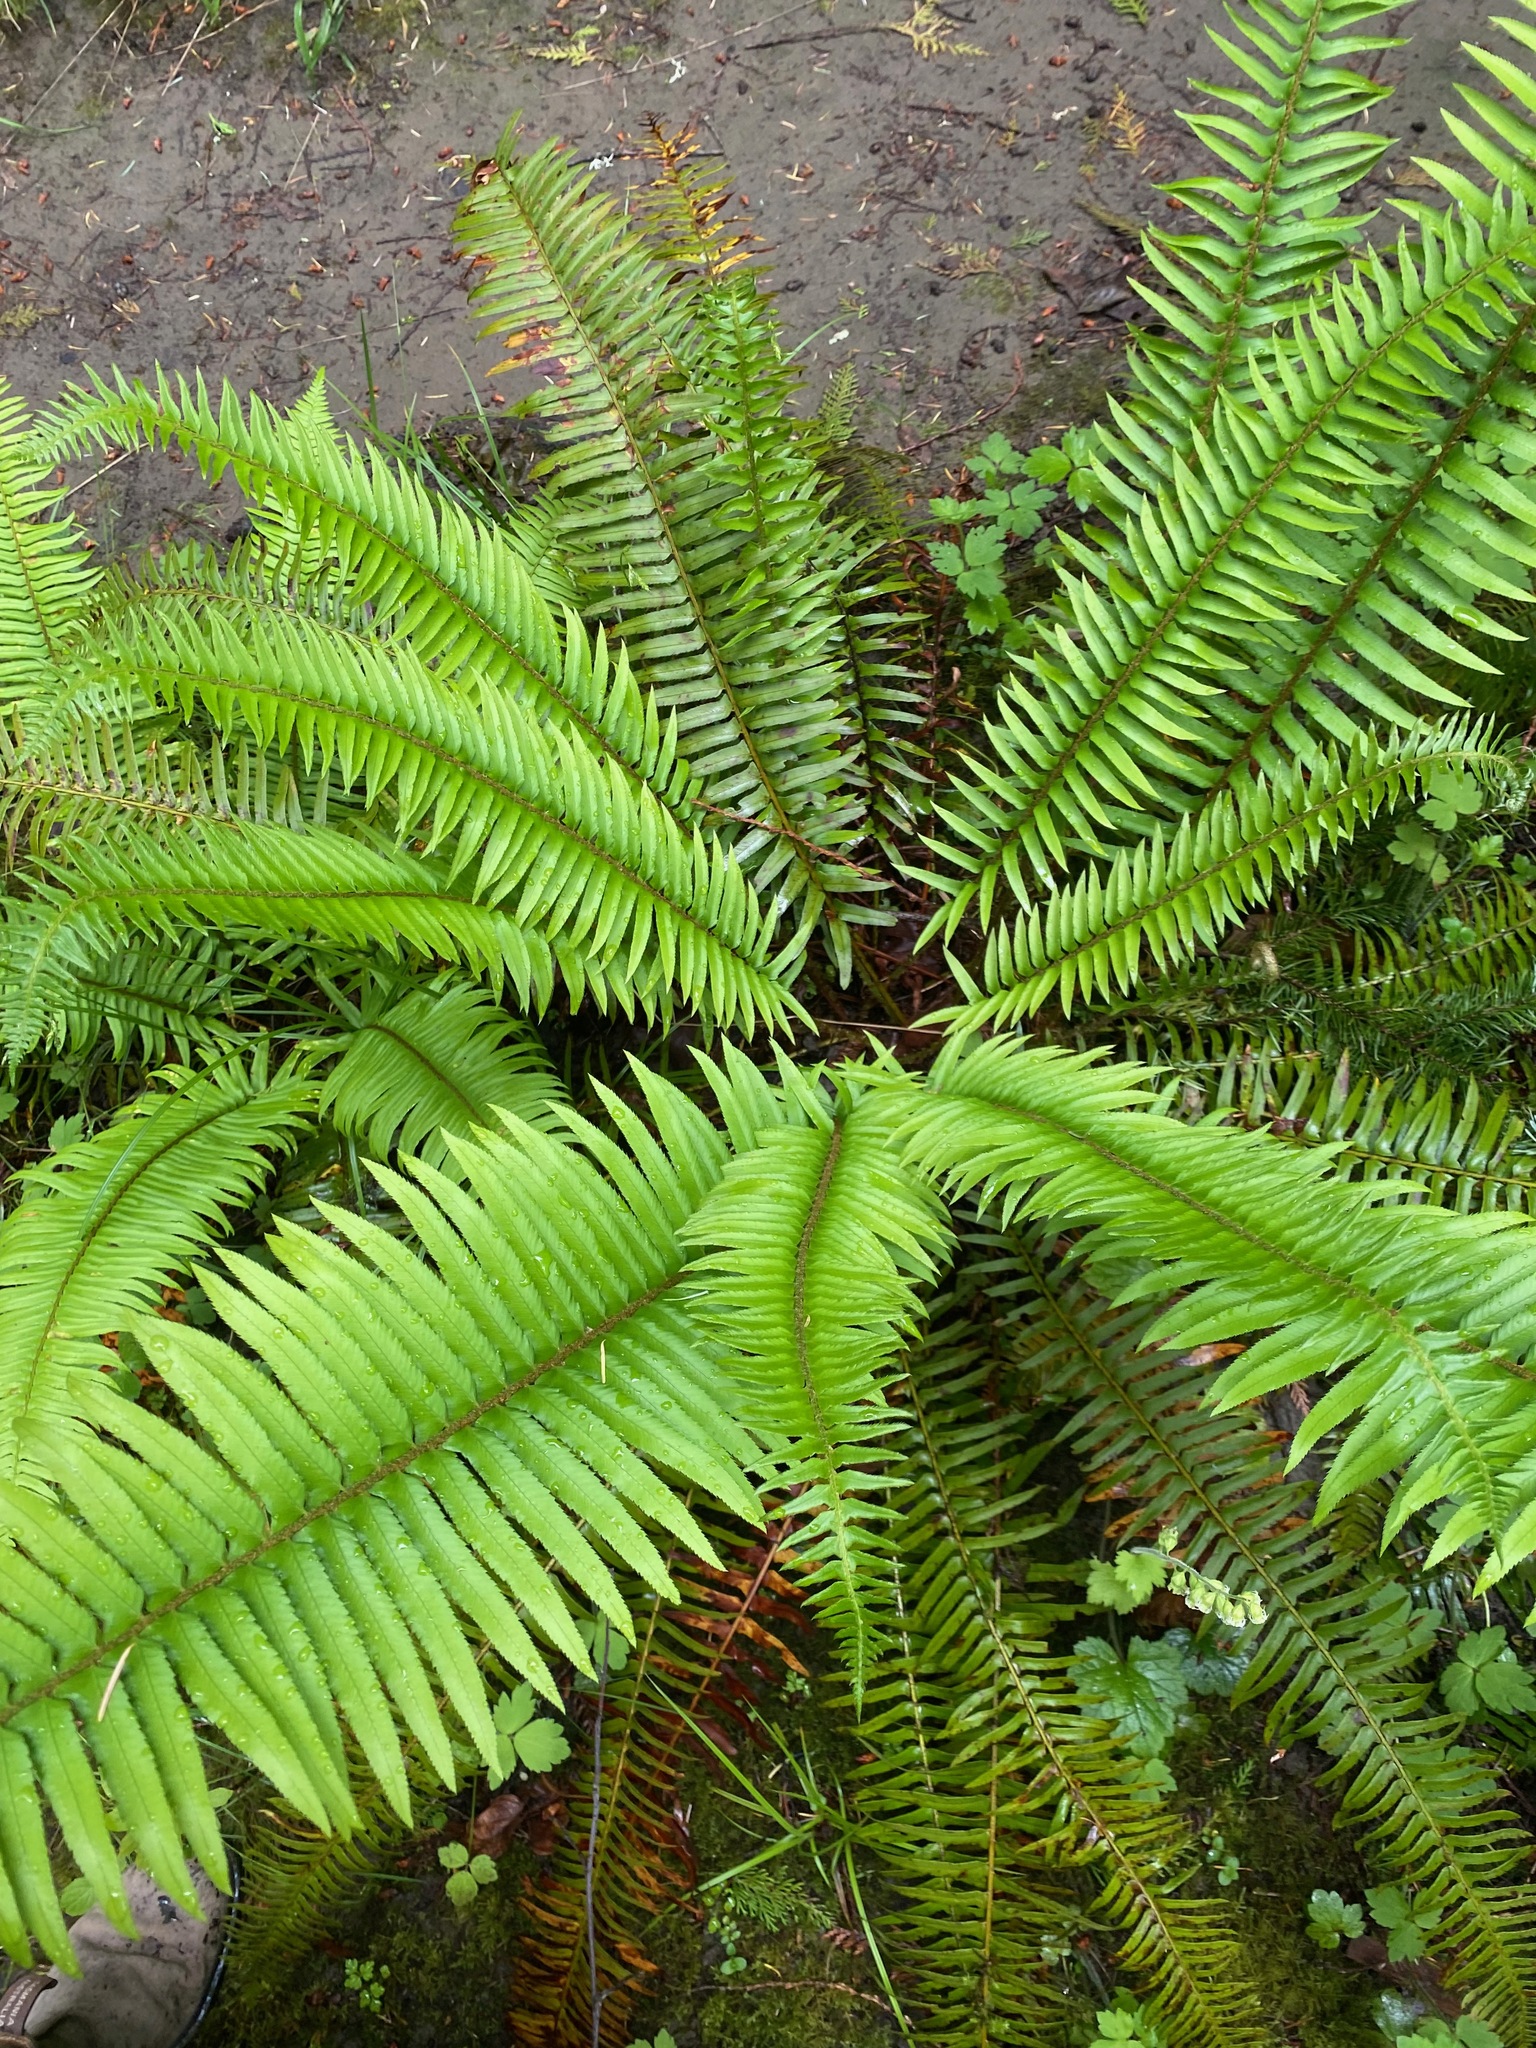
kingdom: Plantae
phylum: Tracheophyta
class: Polypodiopsida
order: Polypodiales
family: Dryopteridaceae
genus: Polystichum
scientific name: Polystichum munitum
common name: Western sword-fern
